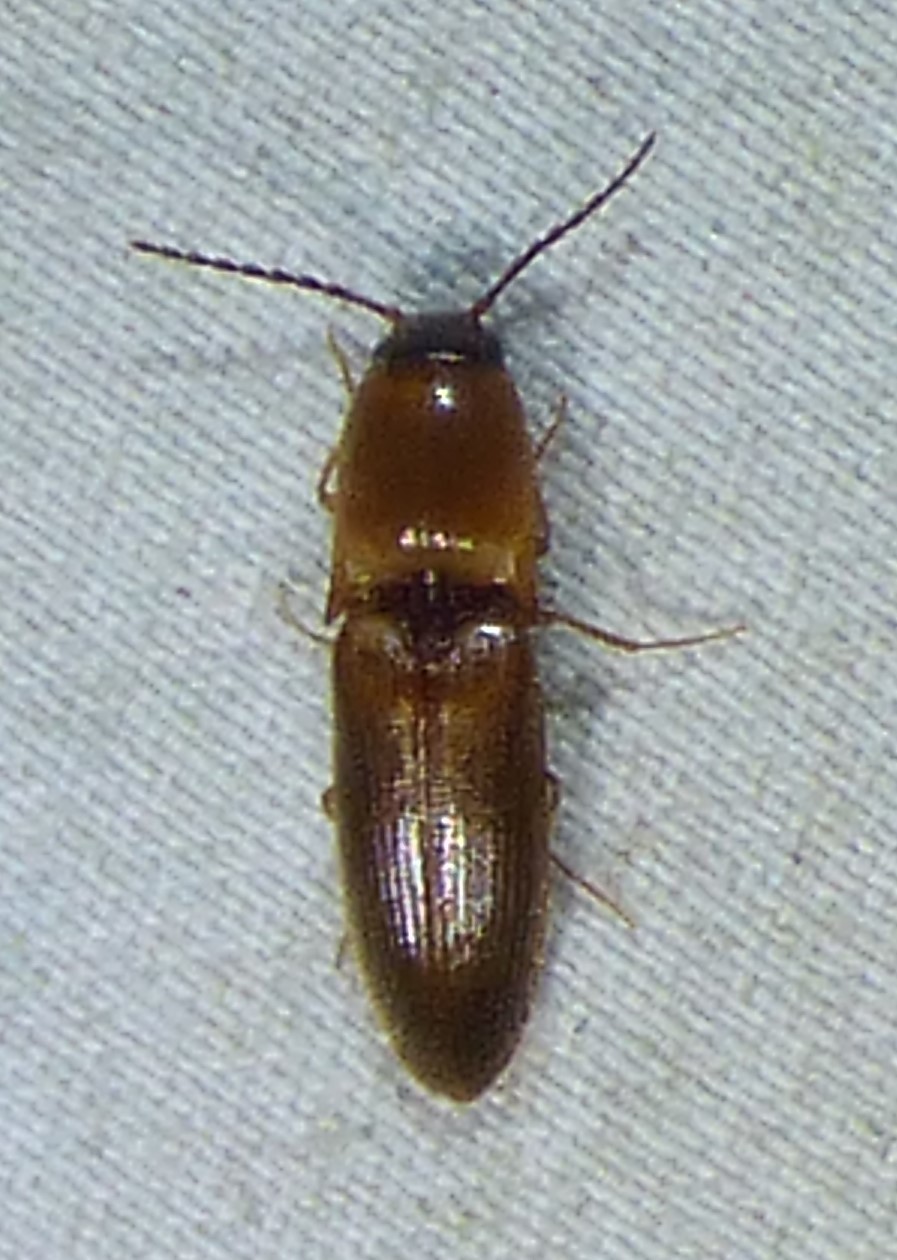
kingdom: Animalia
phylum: Arthropoda
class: Insecta
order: Coleoptera
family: Elateridae
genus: Megapenthes
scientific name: Megapenthes
